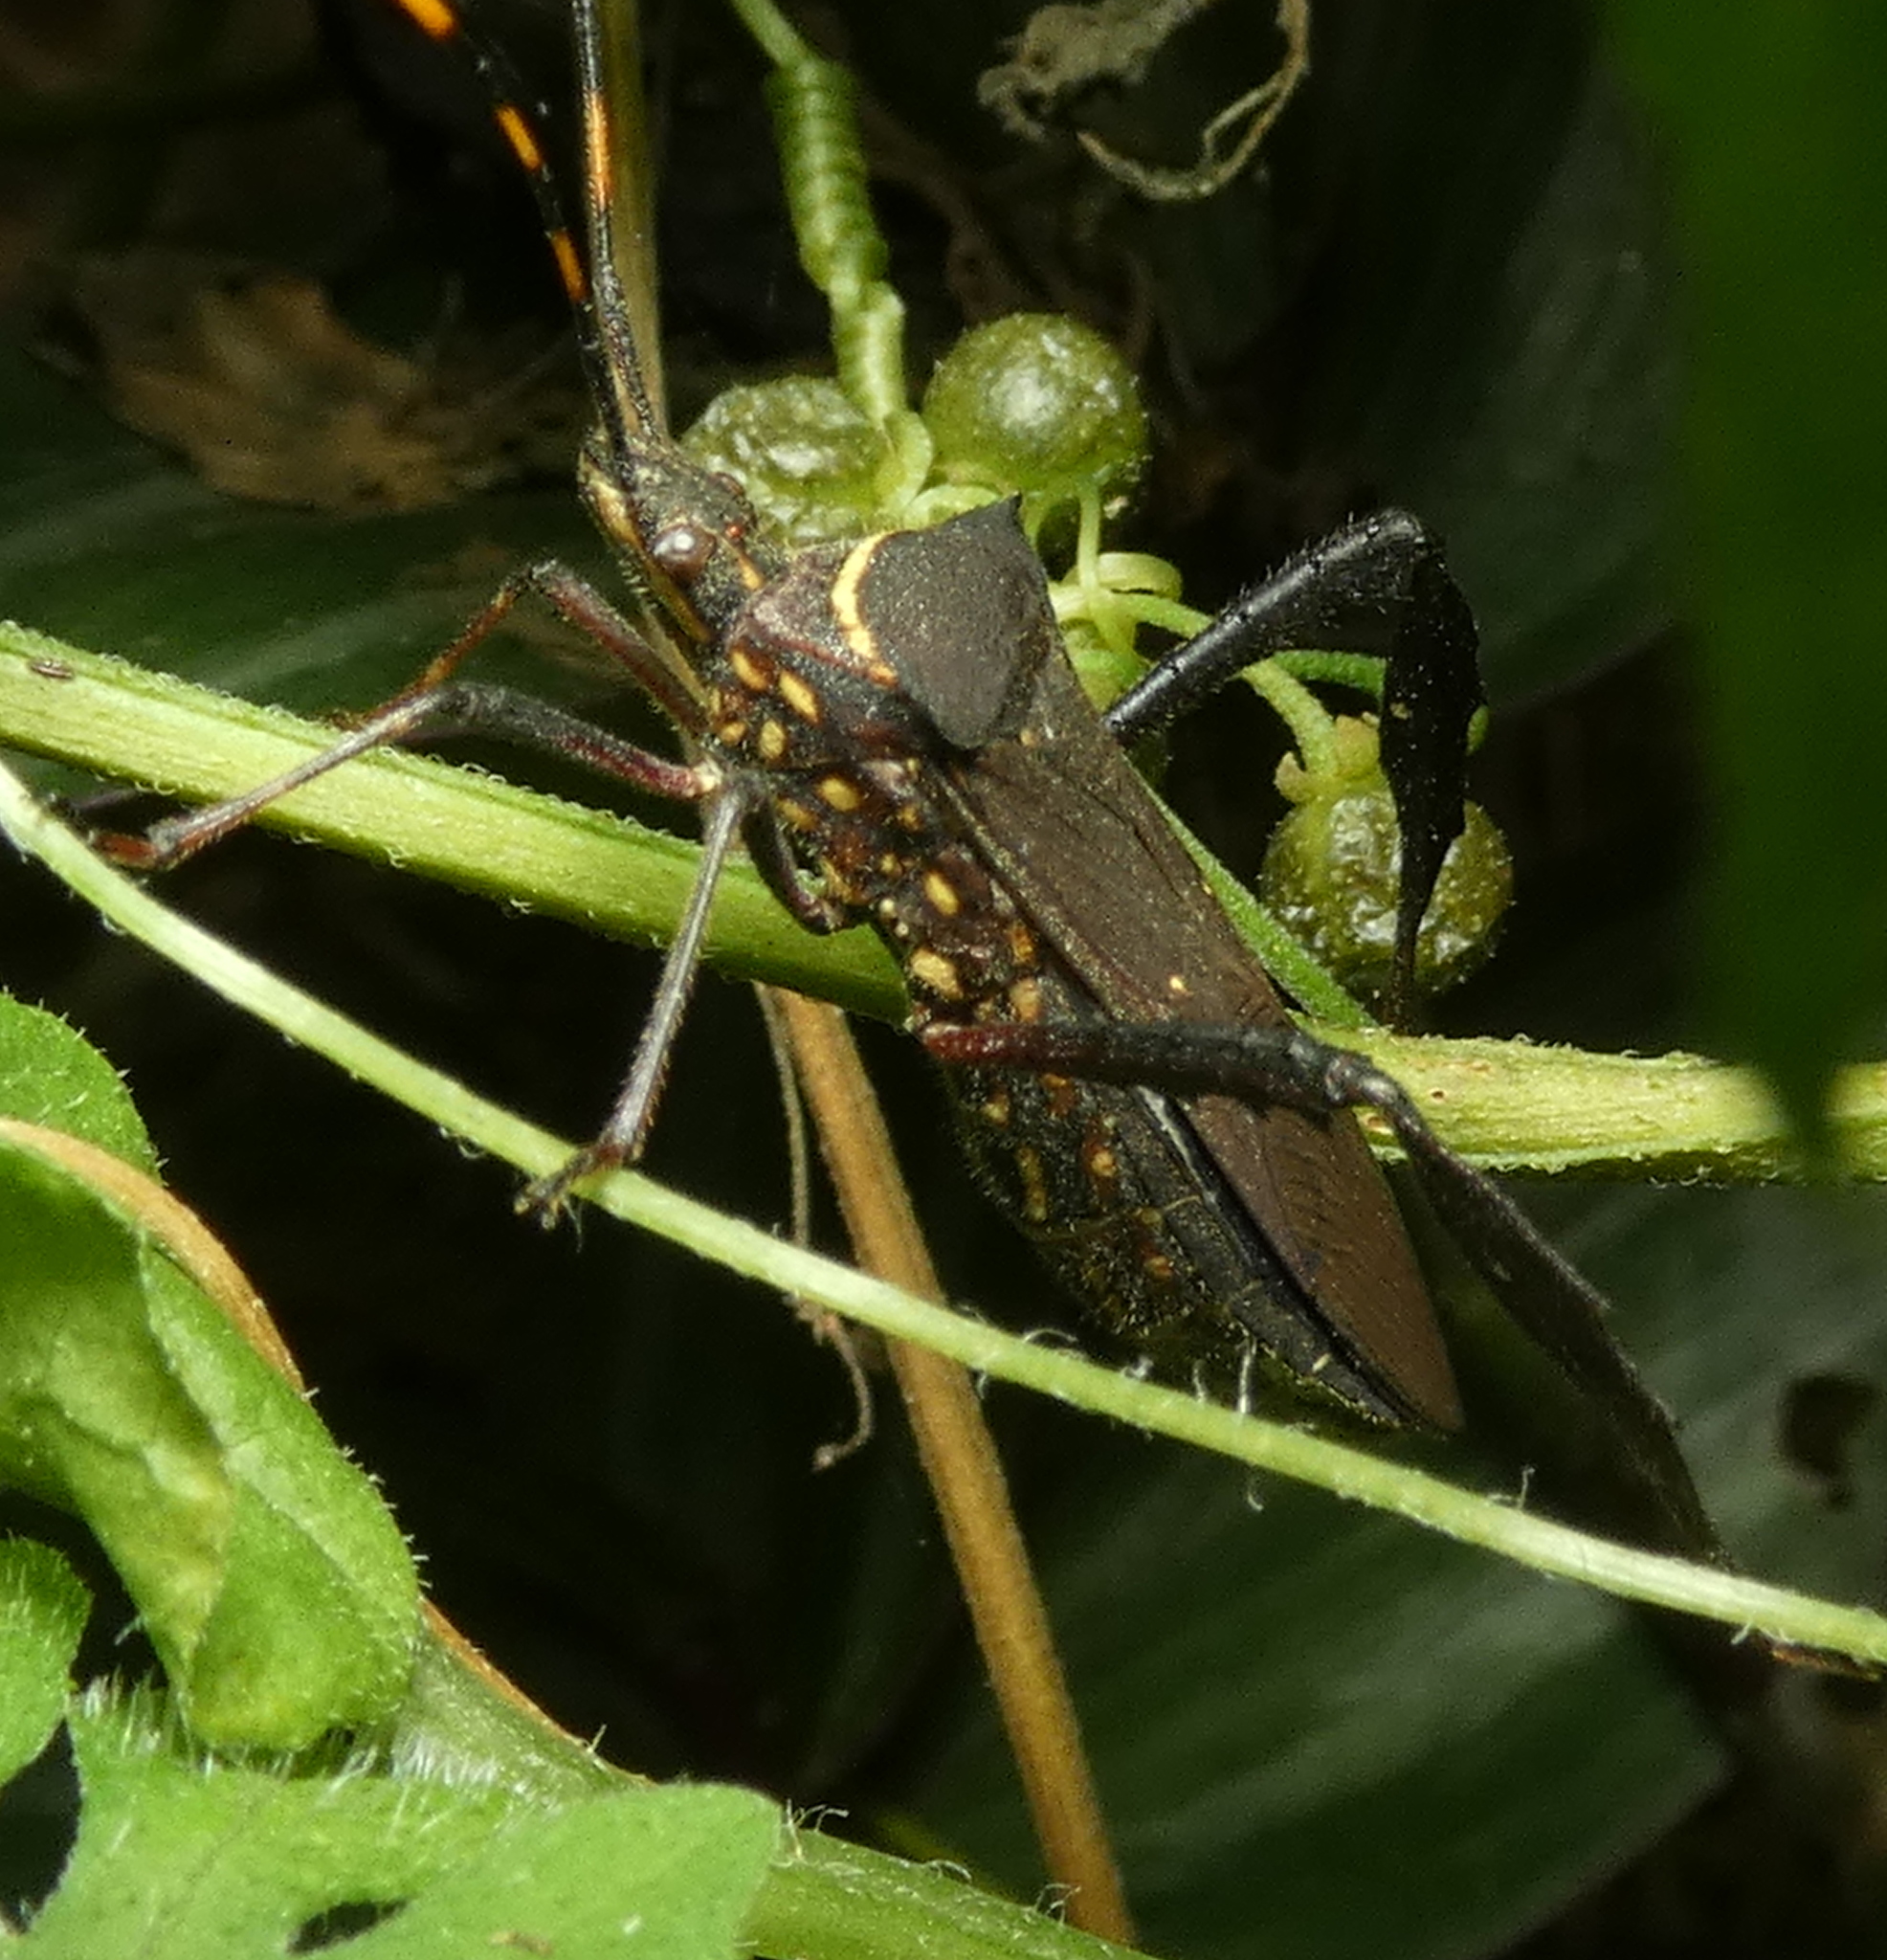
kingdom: Animalia
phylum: Arthropoda
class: Insecta
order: Hemiptera
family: Coreidae
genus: Leptoglossus
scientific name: Leptoglossus gonagra
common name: Citron bug
